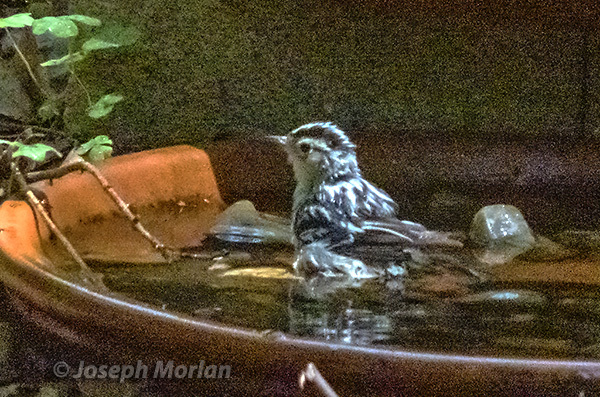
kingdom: Animalia
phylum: Chordata
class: Aves
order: Passeriformes
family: Parulidae
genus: Mniotilta
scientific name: Mniotilta varia
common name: Black-and-white warbler
